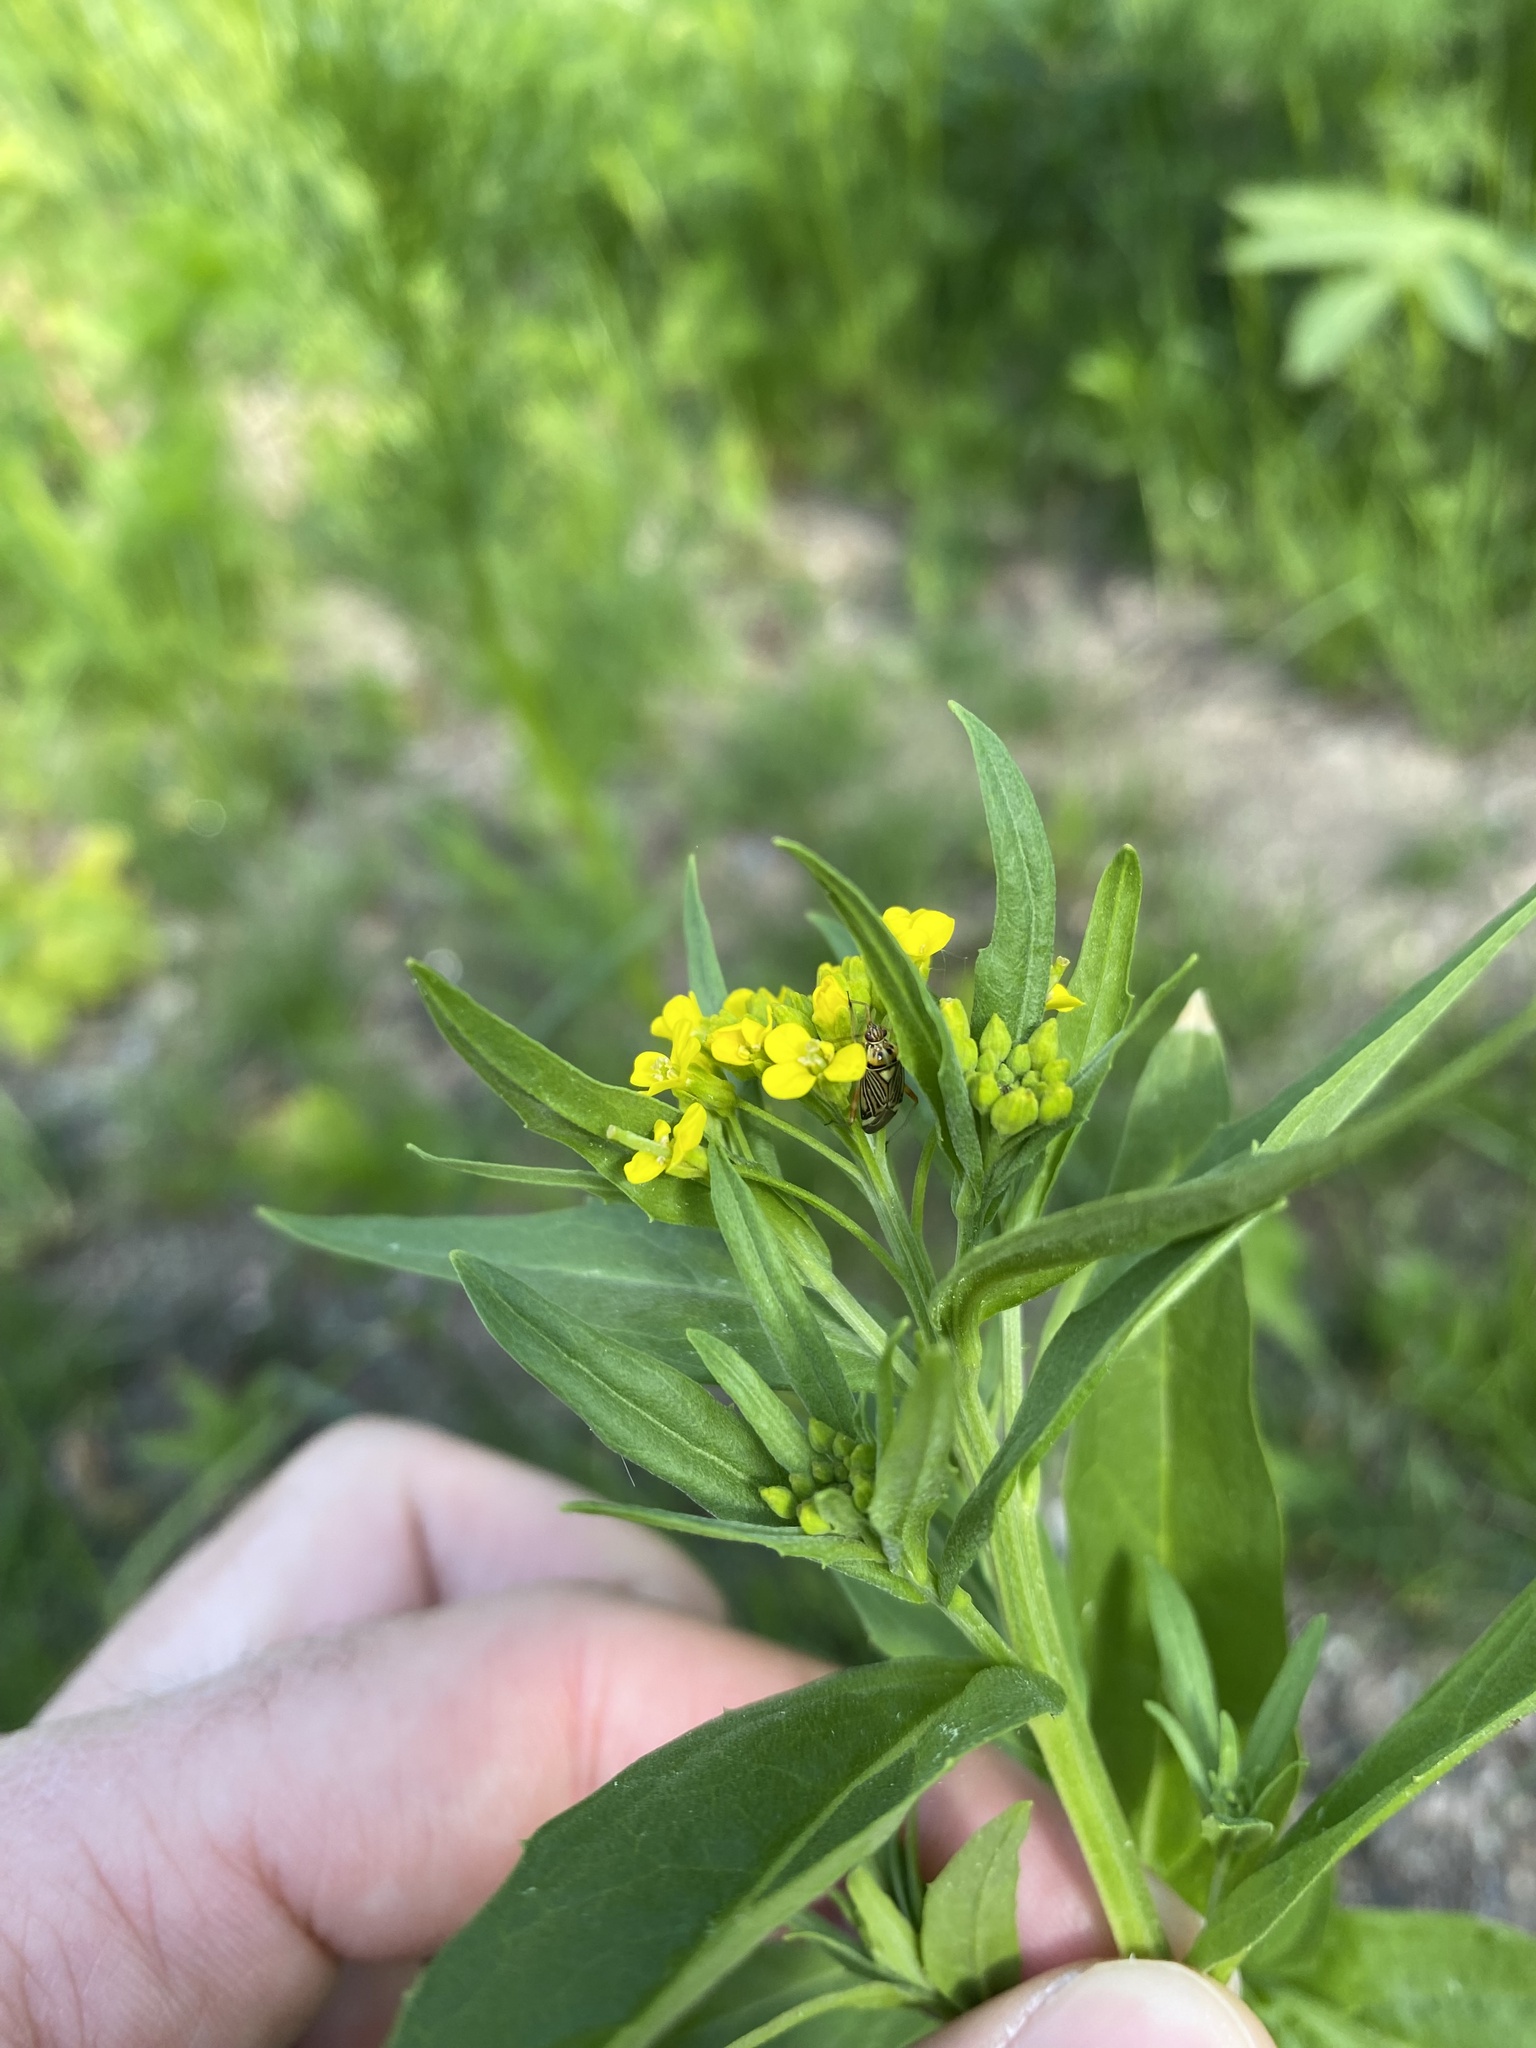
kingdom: Animalia
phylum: Arthropoda
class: Insecta
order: Hemiptera
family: Miridae
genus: Rhabdomiris
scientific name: Rhabdomiris striatellus
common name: Plant bug
